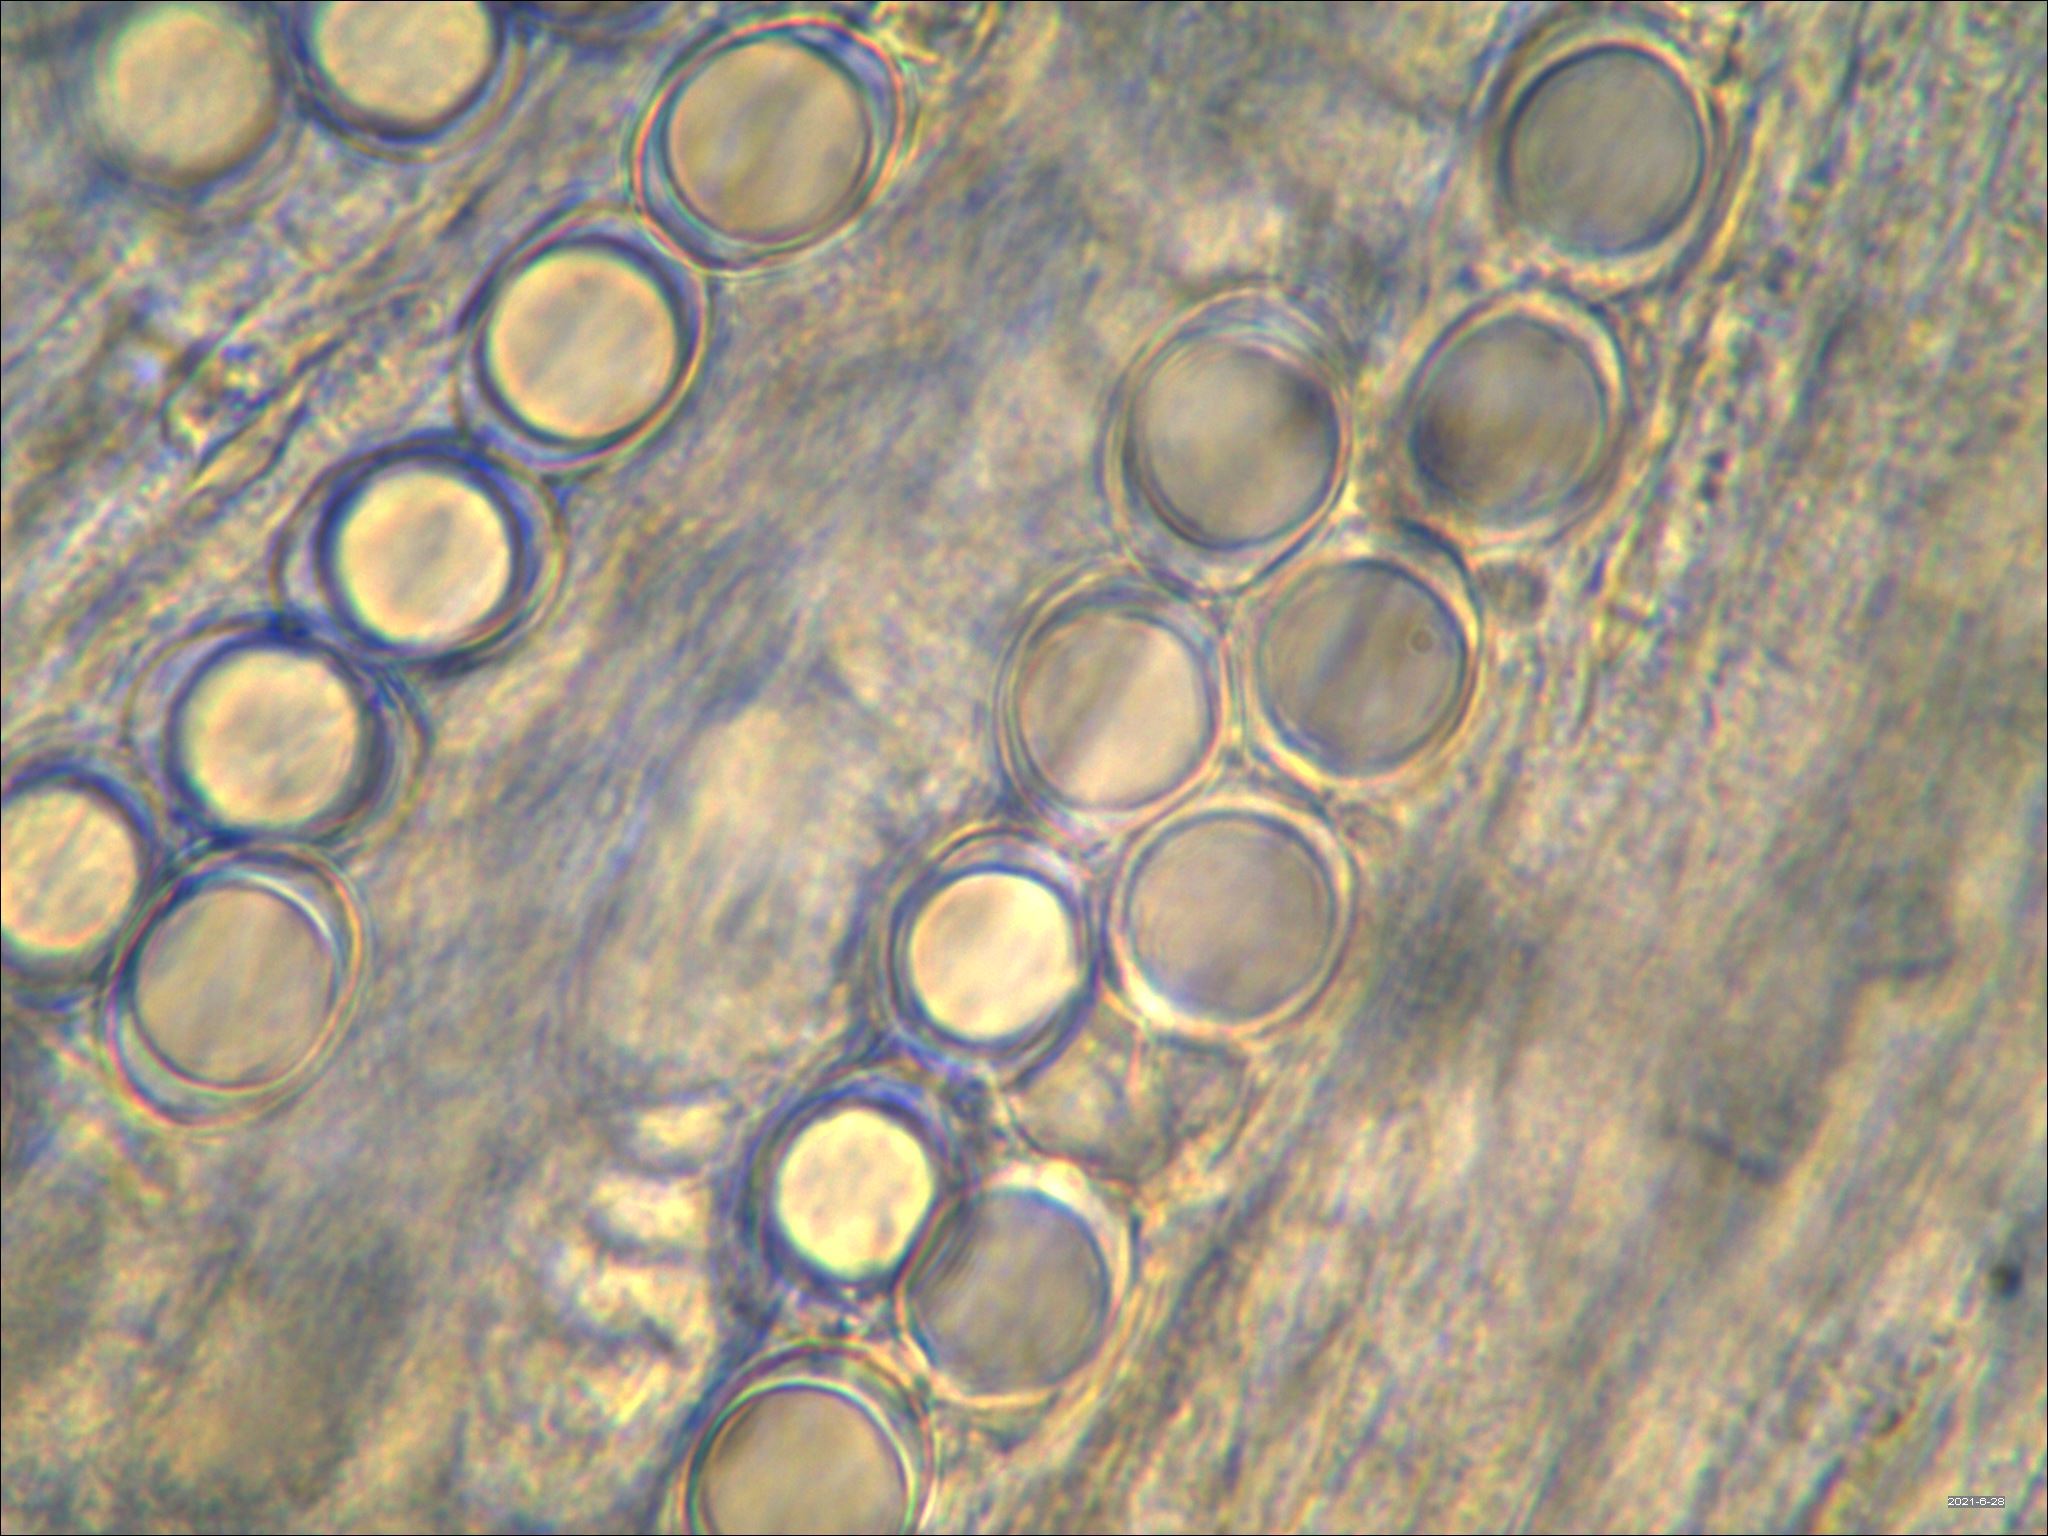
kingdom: Fungi
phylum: Ascomycota
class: Pezizomycetes
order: Pezizales
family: Helvellaceae
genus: Helvella
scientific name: Helvella lactea
